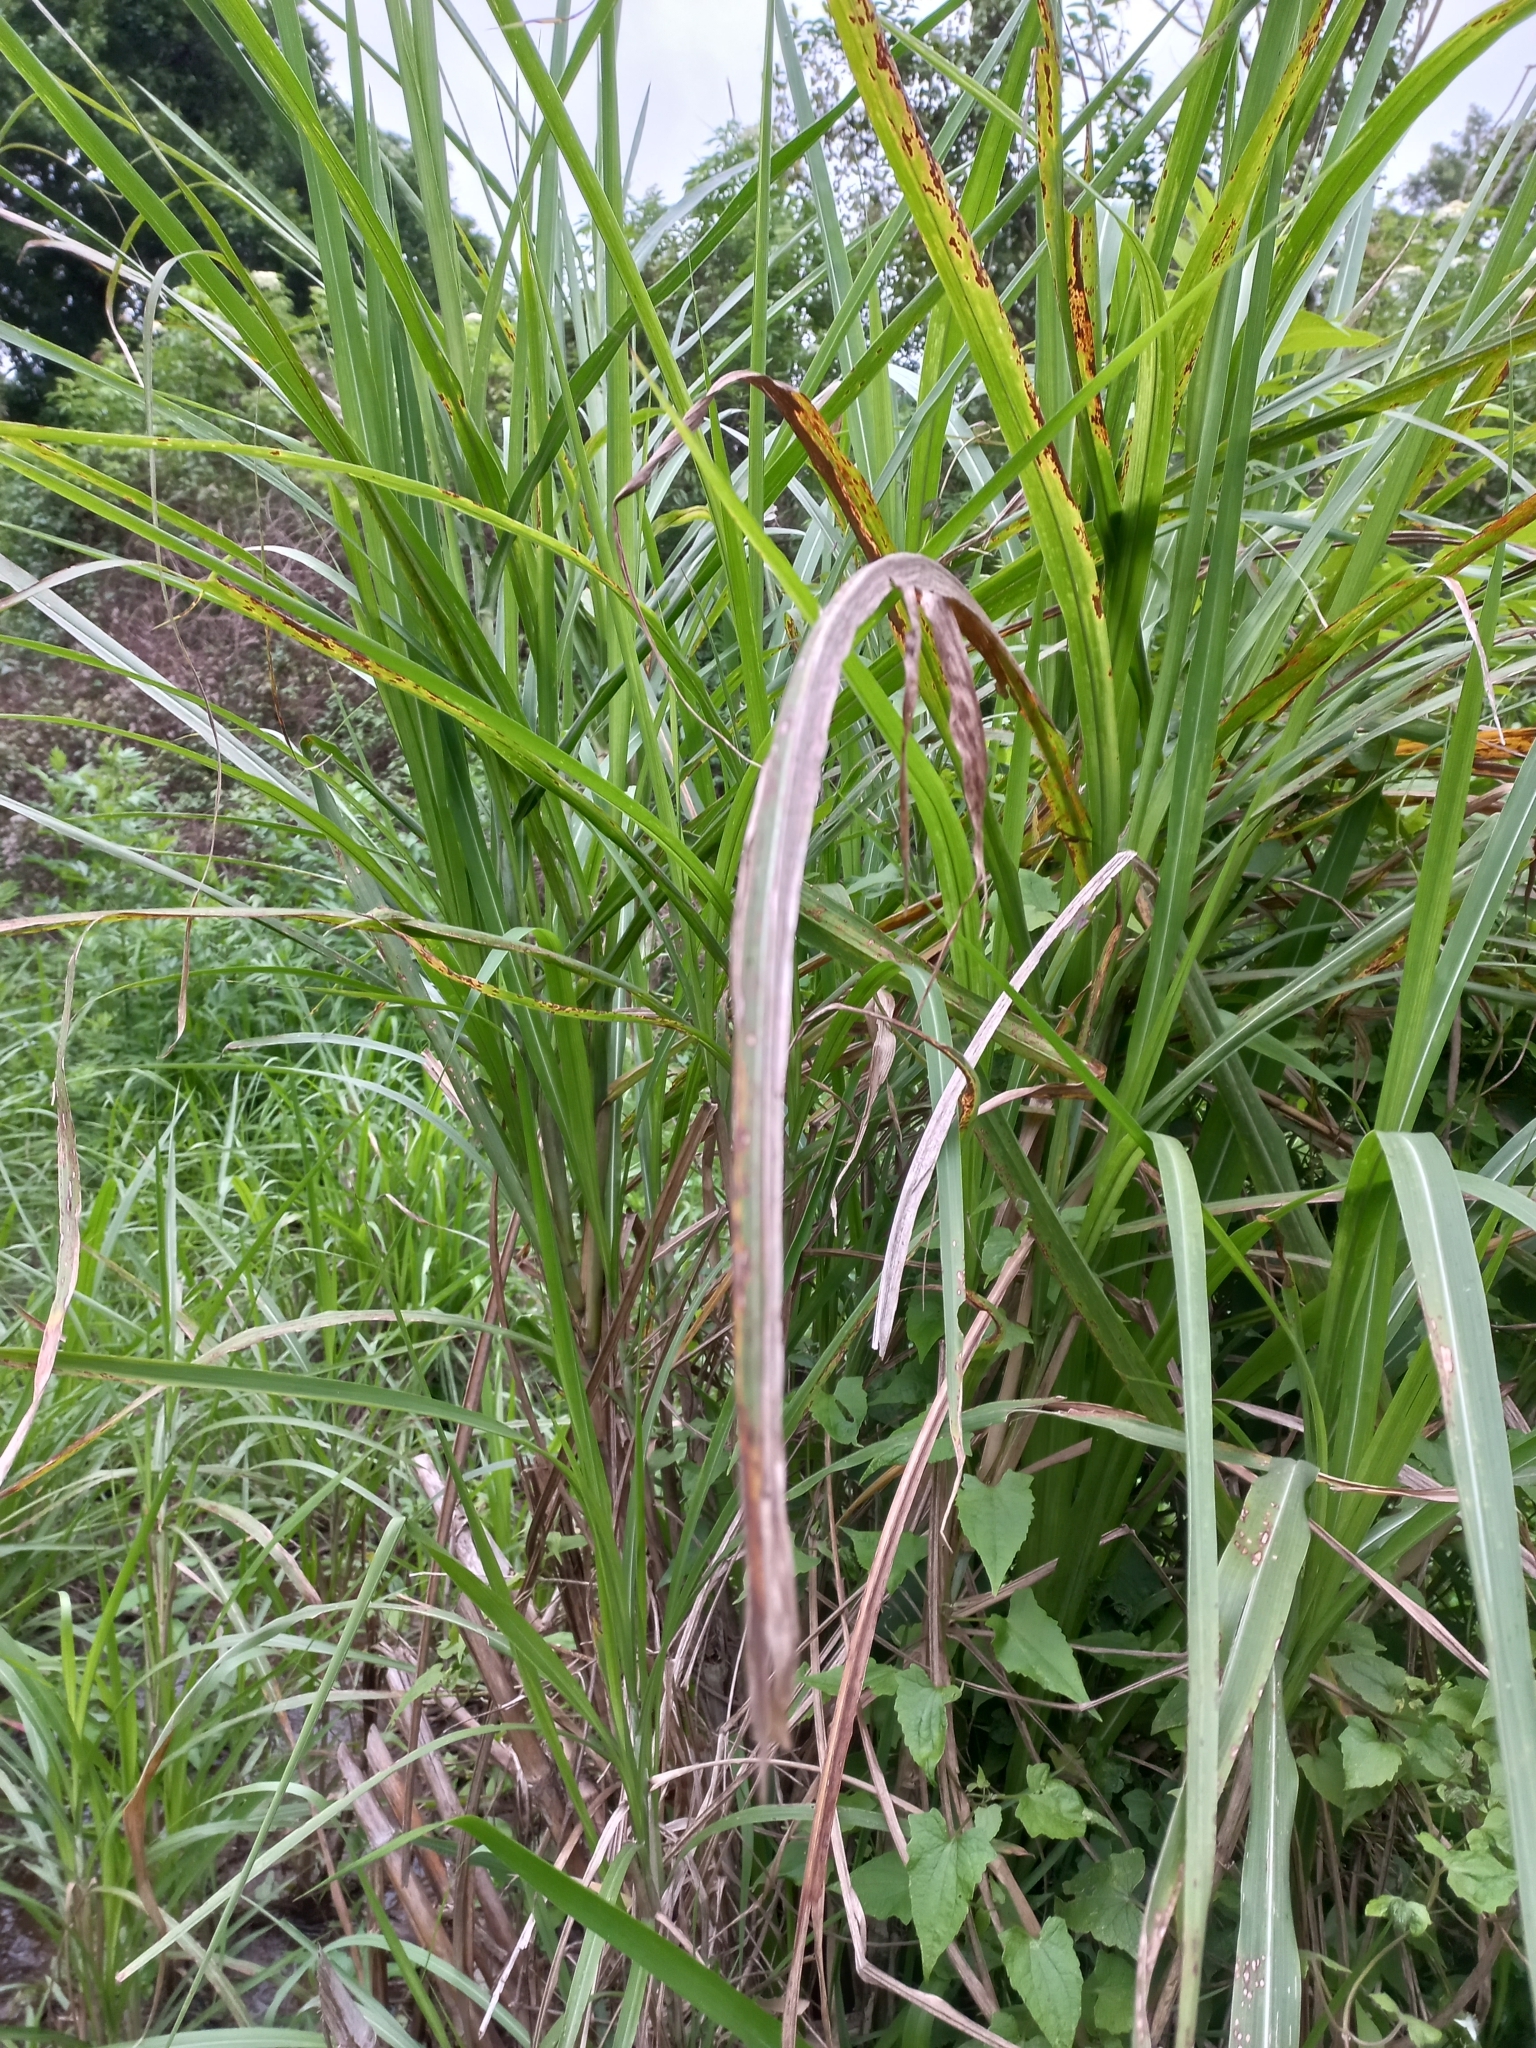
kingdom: Plantae
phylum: Tracheophyta
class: Liliopsida
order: Poales
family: Poaceae
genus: Cenchrus
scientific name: Cenchrus purpureus
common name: Elephant grass
